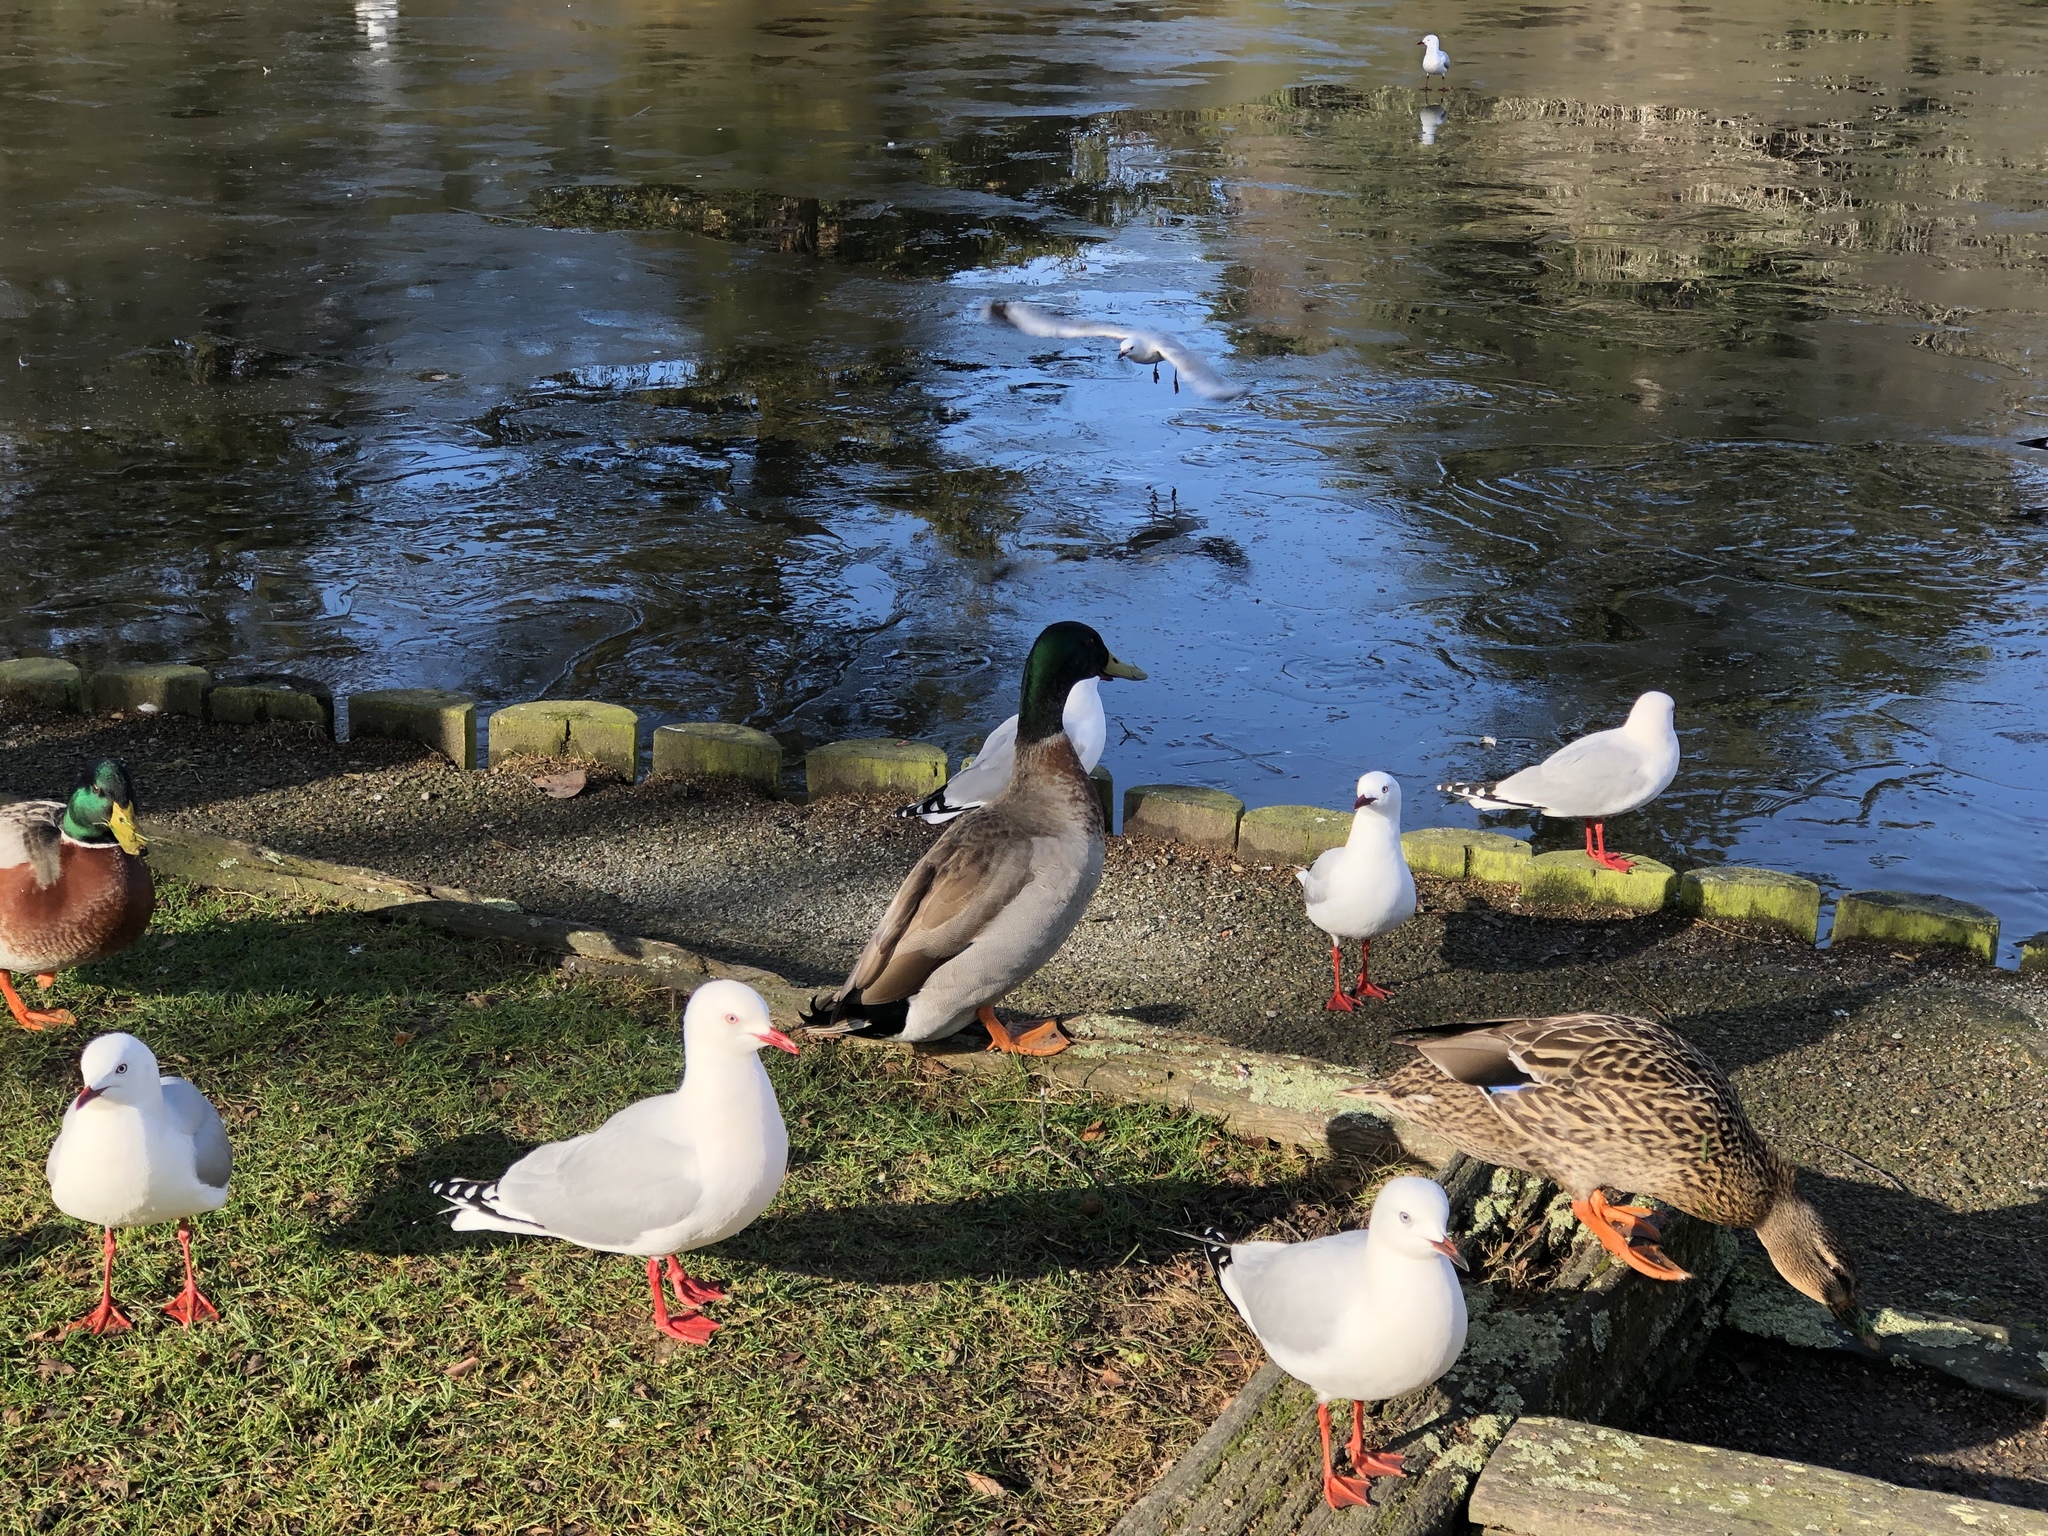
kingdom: Animalia
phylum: Chordata
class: Aves
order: Anseriformes
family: Anatidae
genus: Anas
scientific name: Anas platyrhynchos
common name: Mallard
